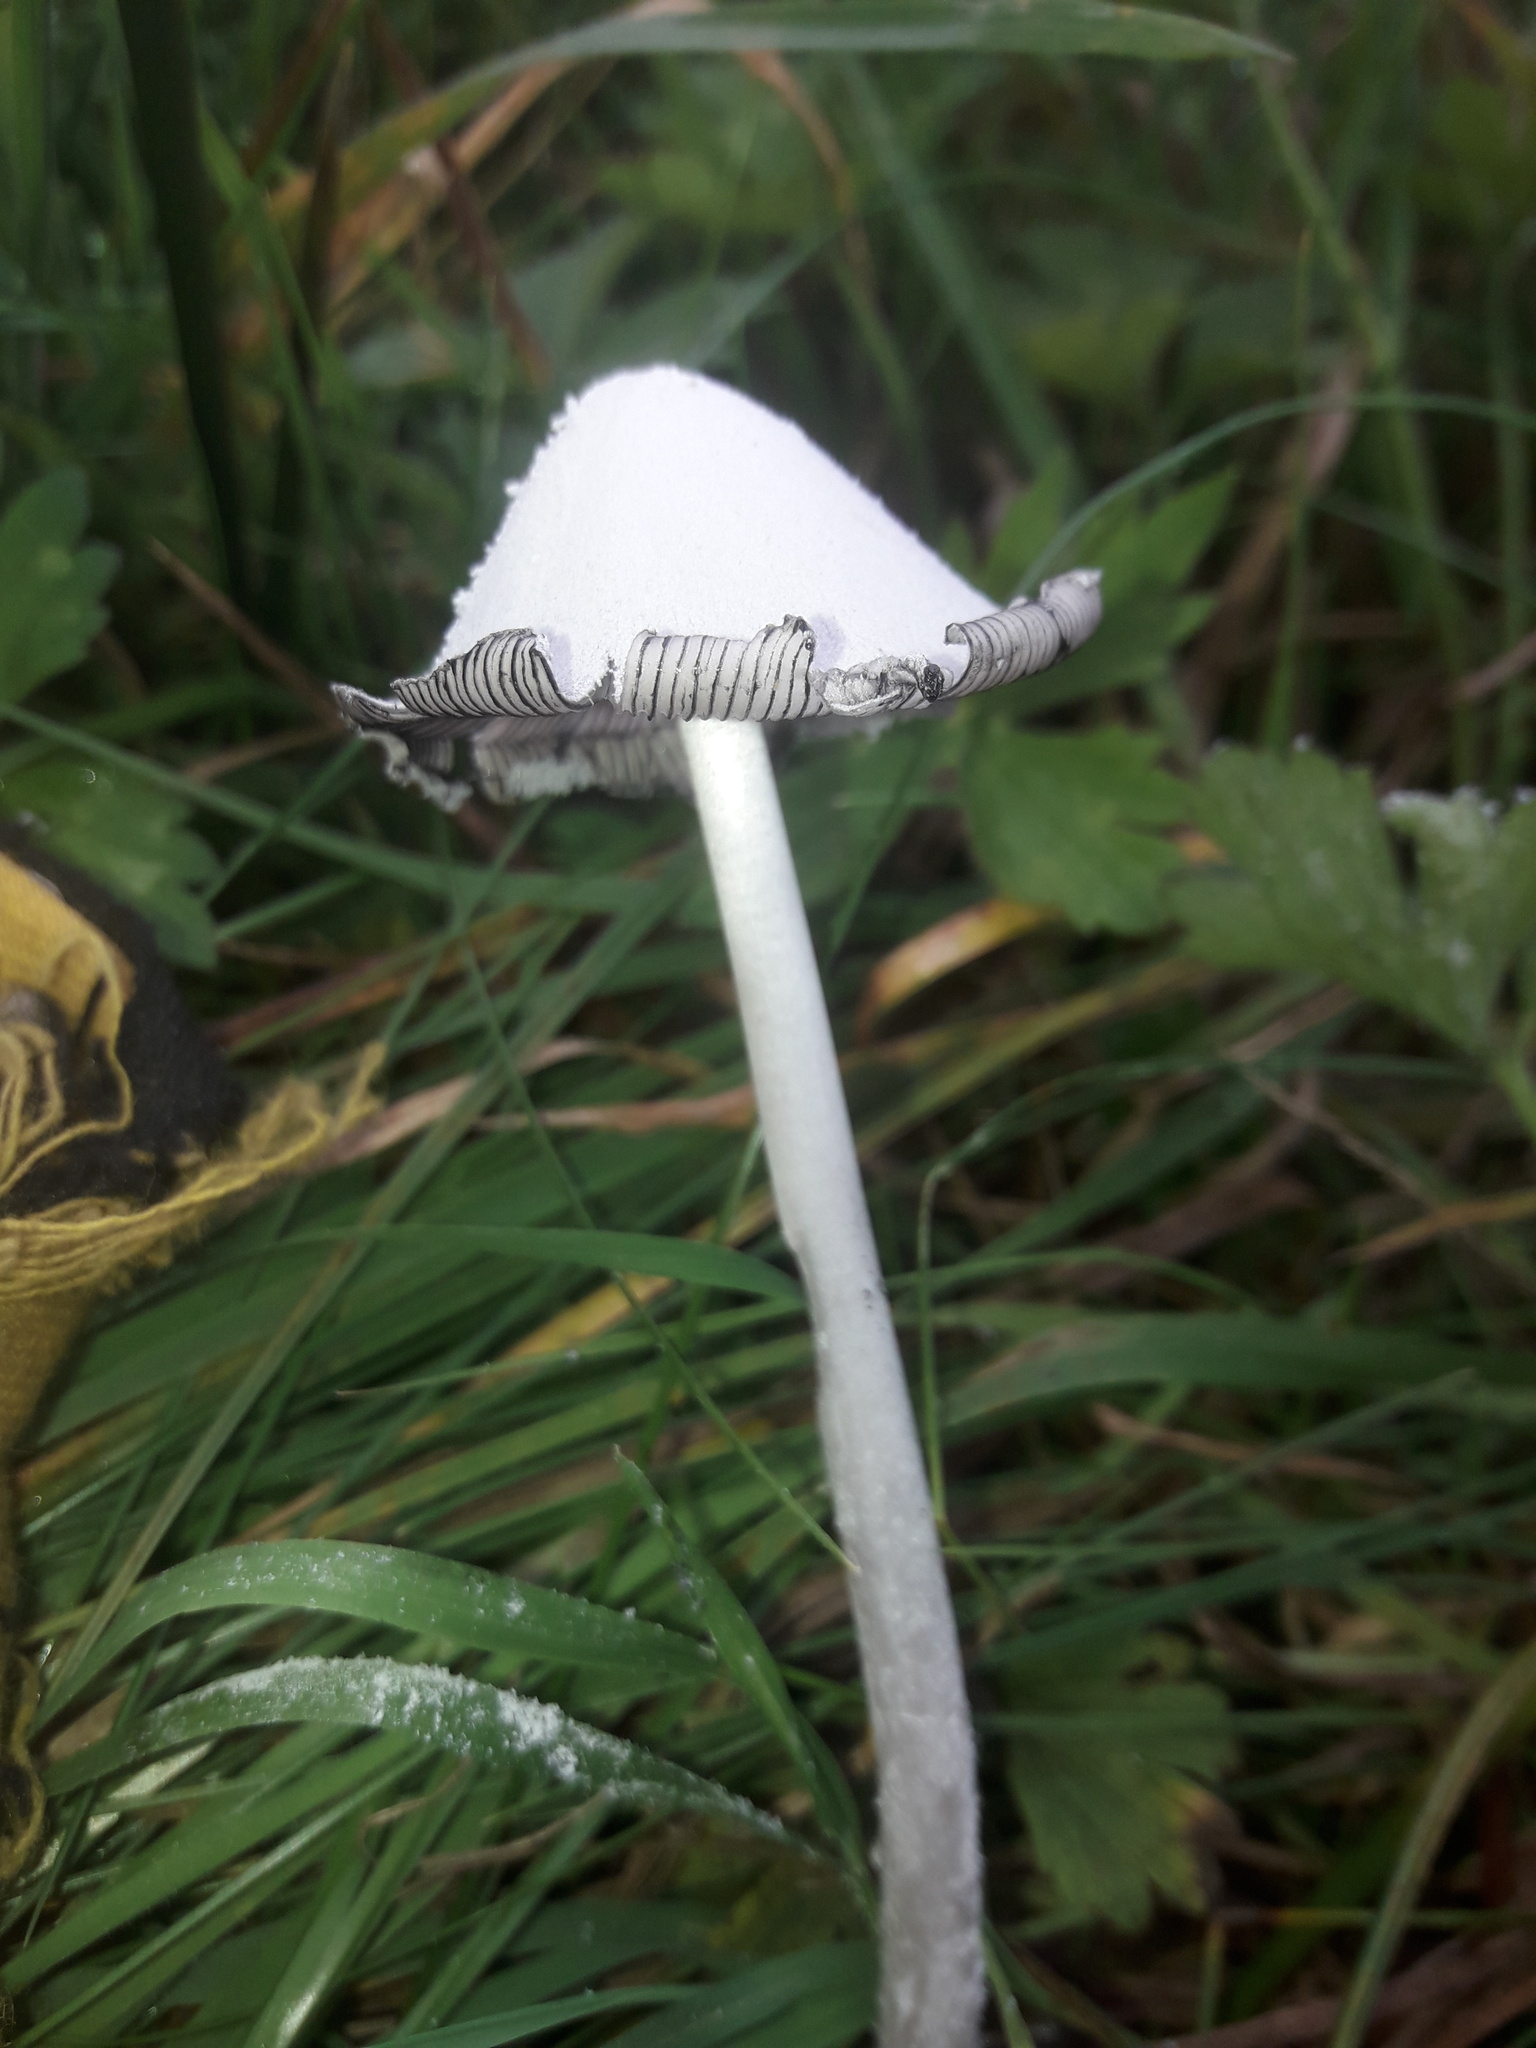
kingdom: Fungi
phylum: Basidiomycota
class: Agaricomycetes
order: Agaricales
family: Psathyrellaceae
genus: Coprinopsis
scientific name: Coprinopsis nivea
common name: Snowy inkcap
